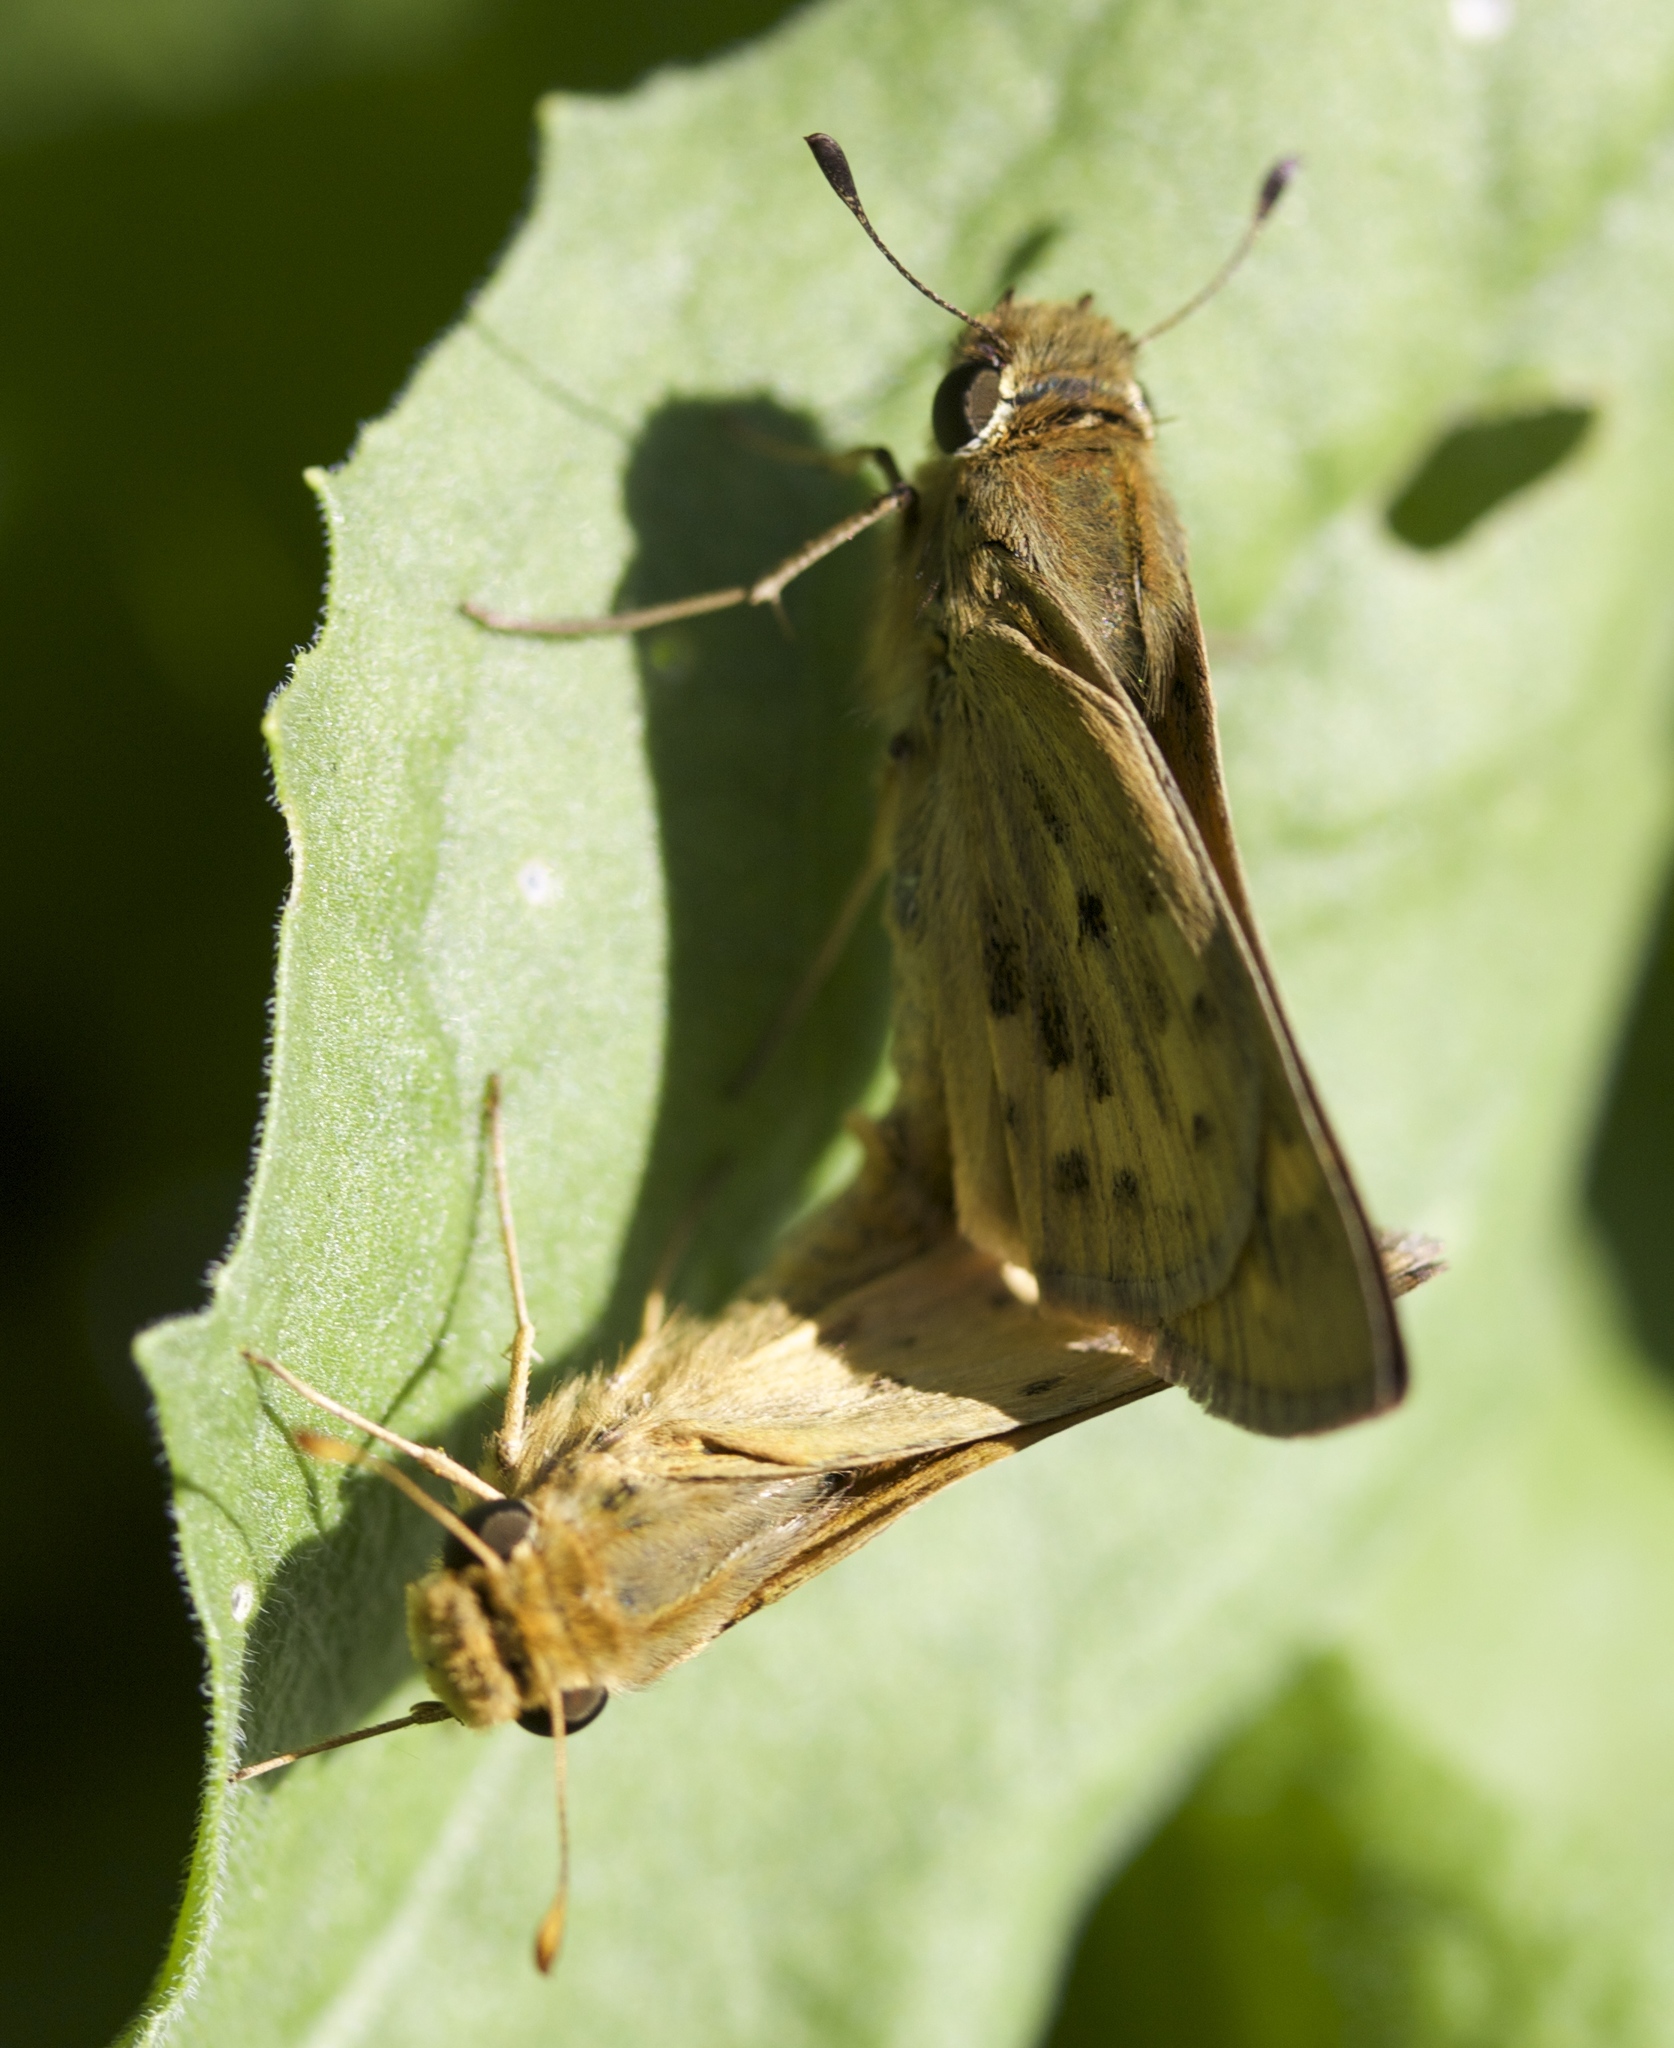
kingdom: Animalia
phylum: Arthropoda
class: Insecta
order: Lepidoptera
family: Hesperiidae
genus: Hylephila
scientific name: Hylephila phyleus
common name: Fiery skipper
